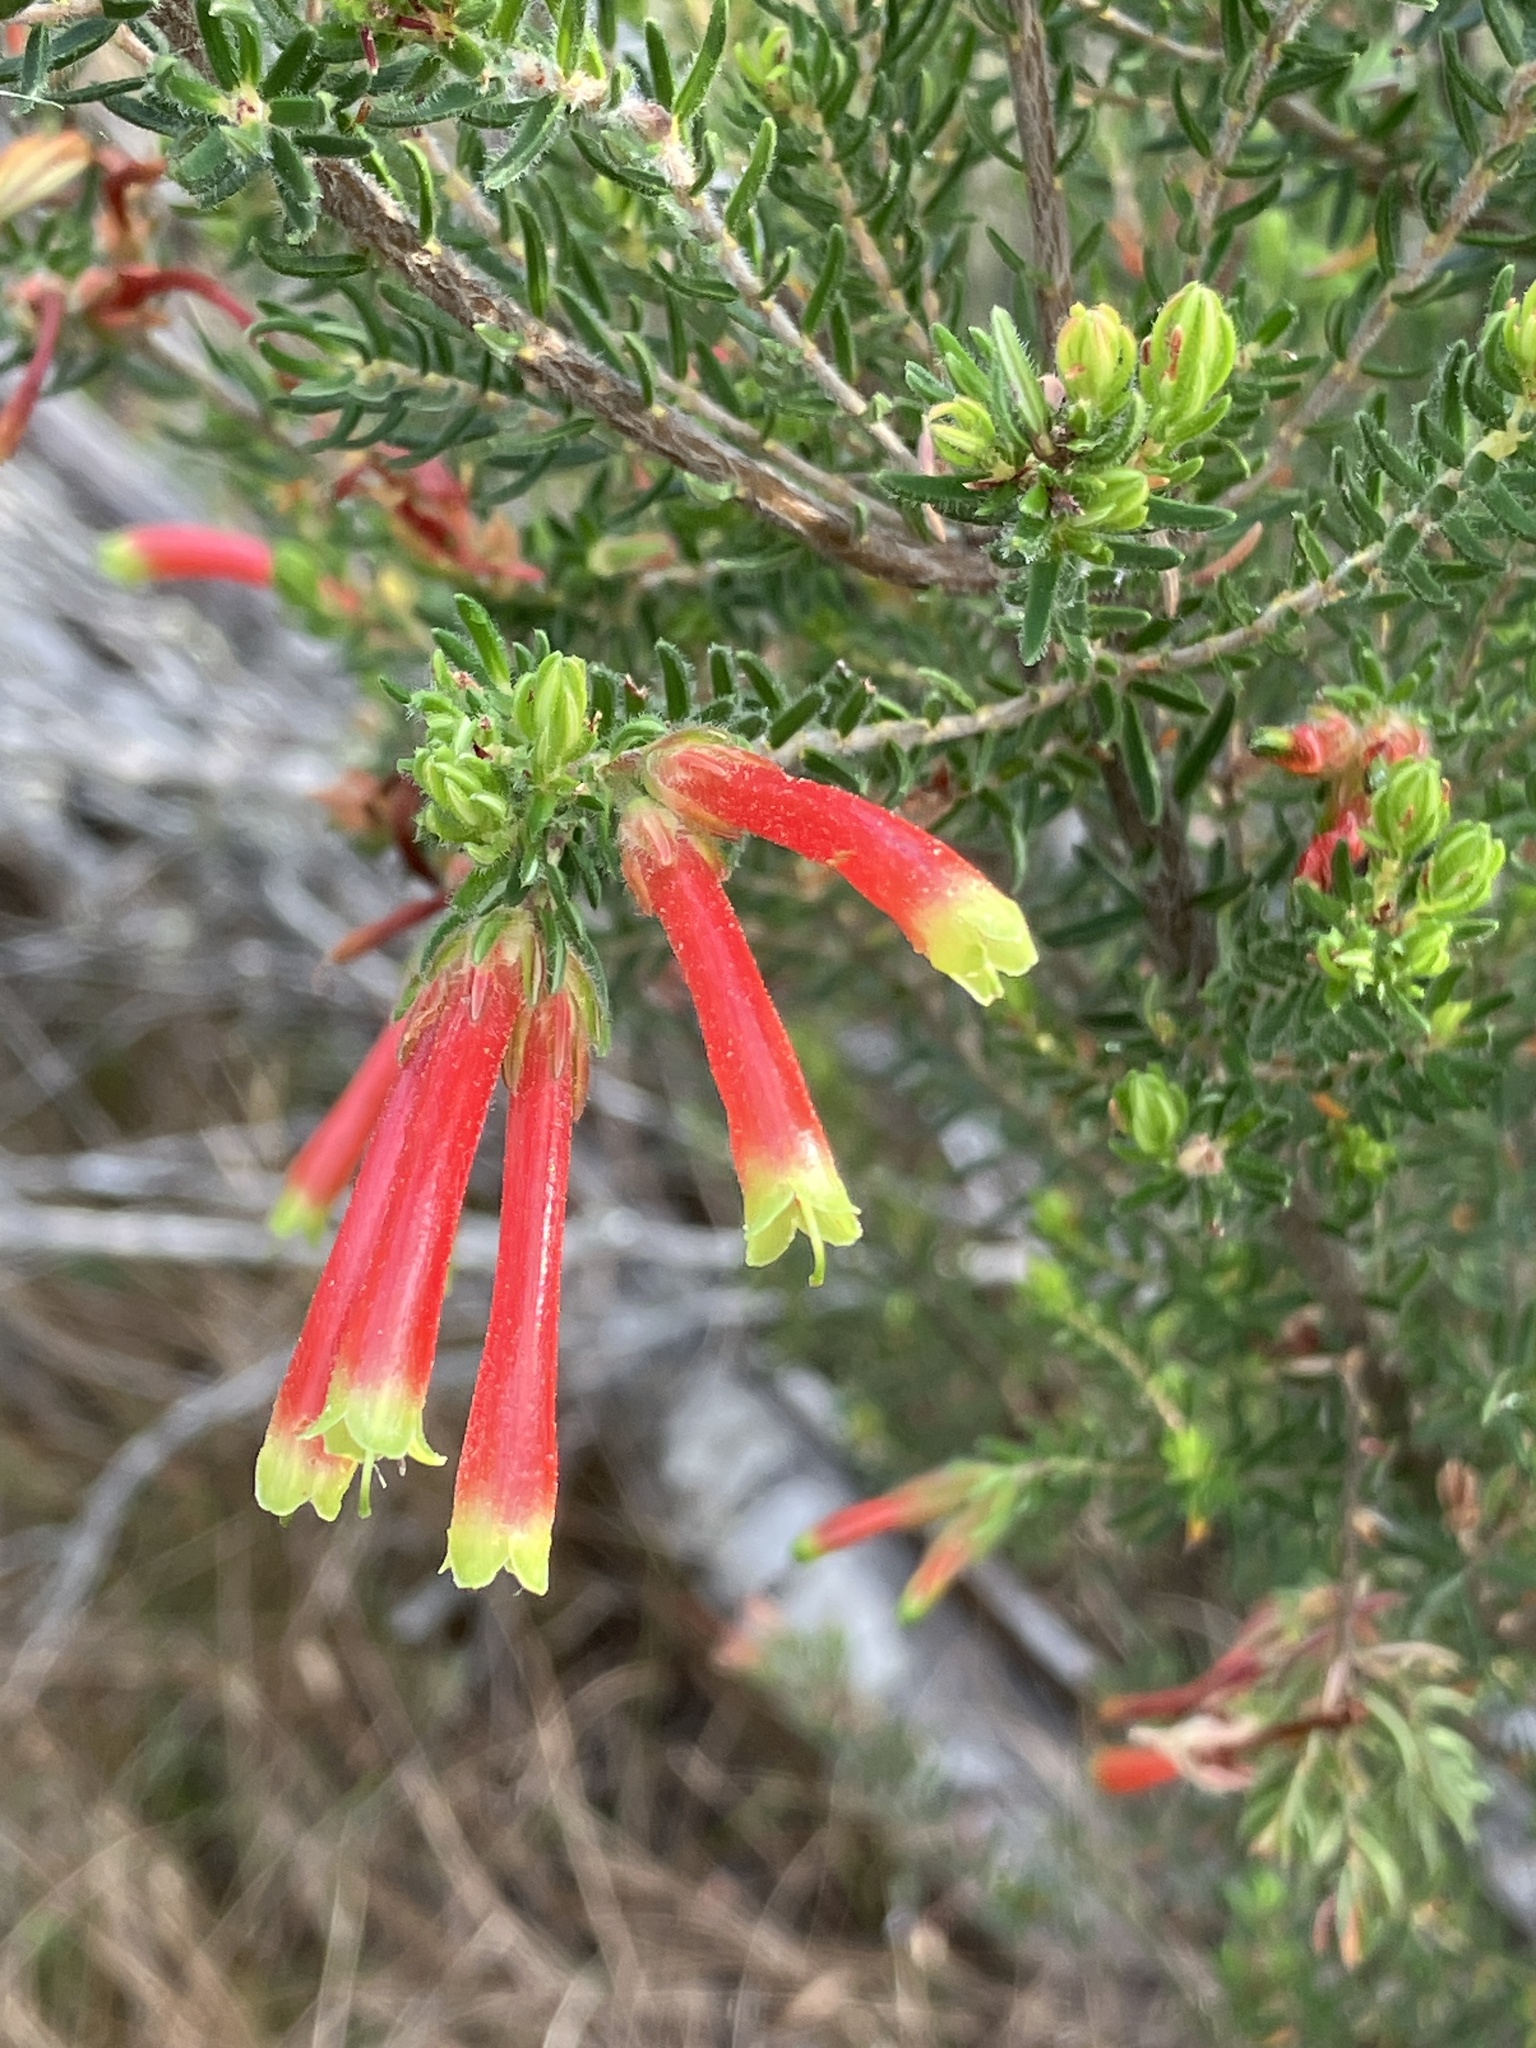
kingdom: Plantae
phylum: Tracheophyta
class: Magnoliopsida
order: Ericales
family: Ericaceae
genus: Erica
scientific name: Erica discolor
